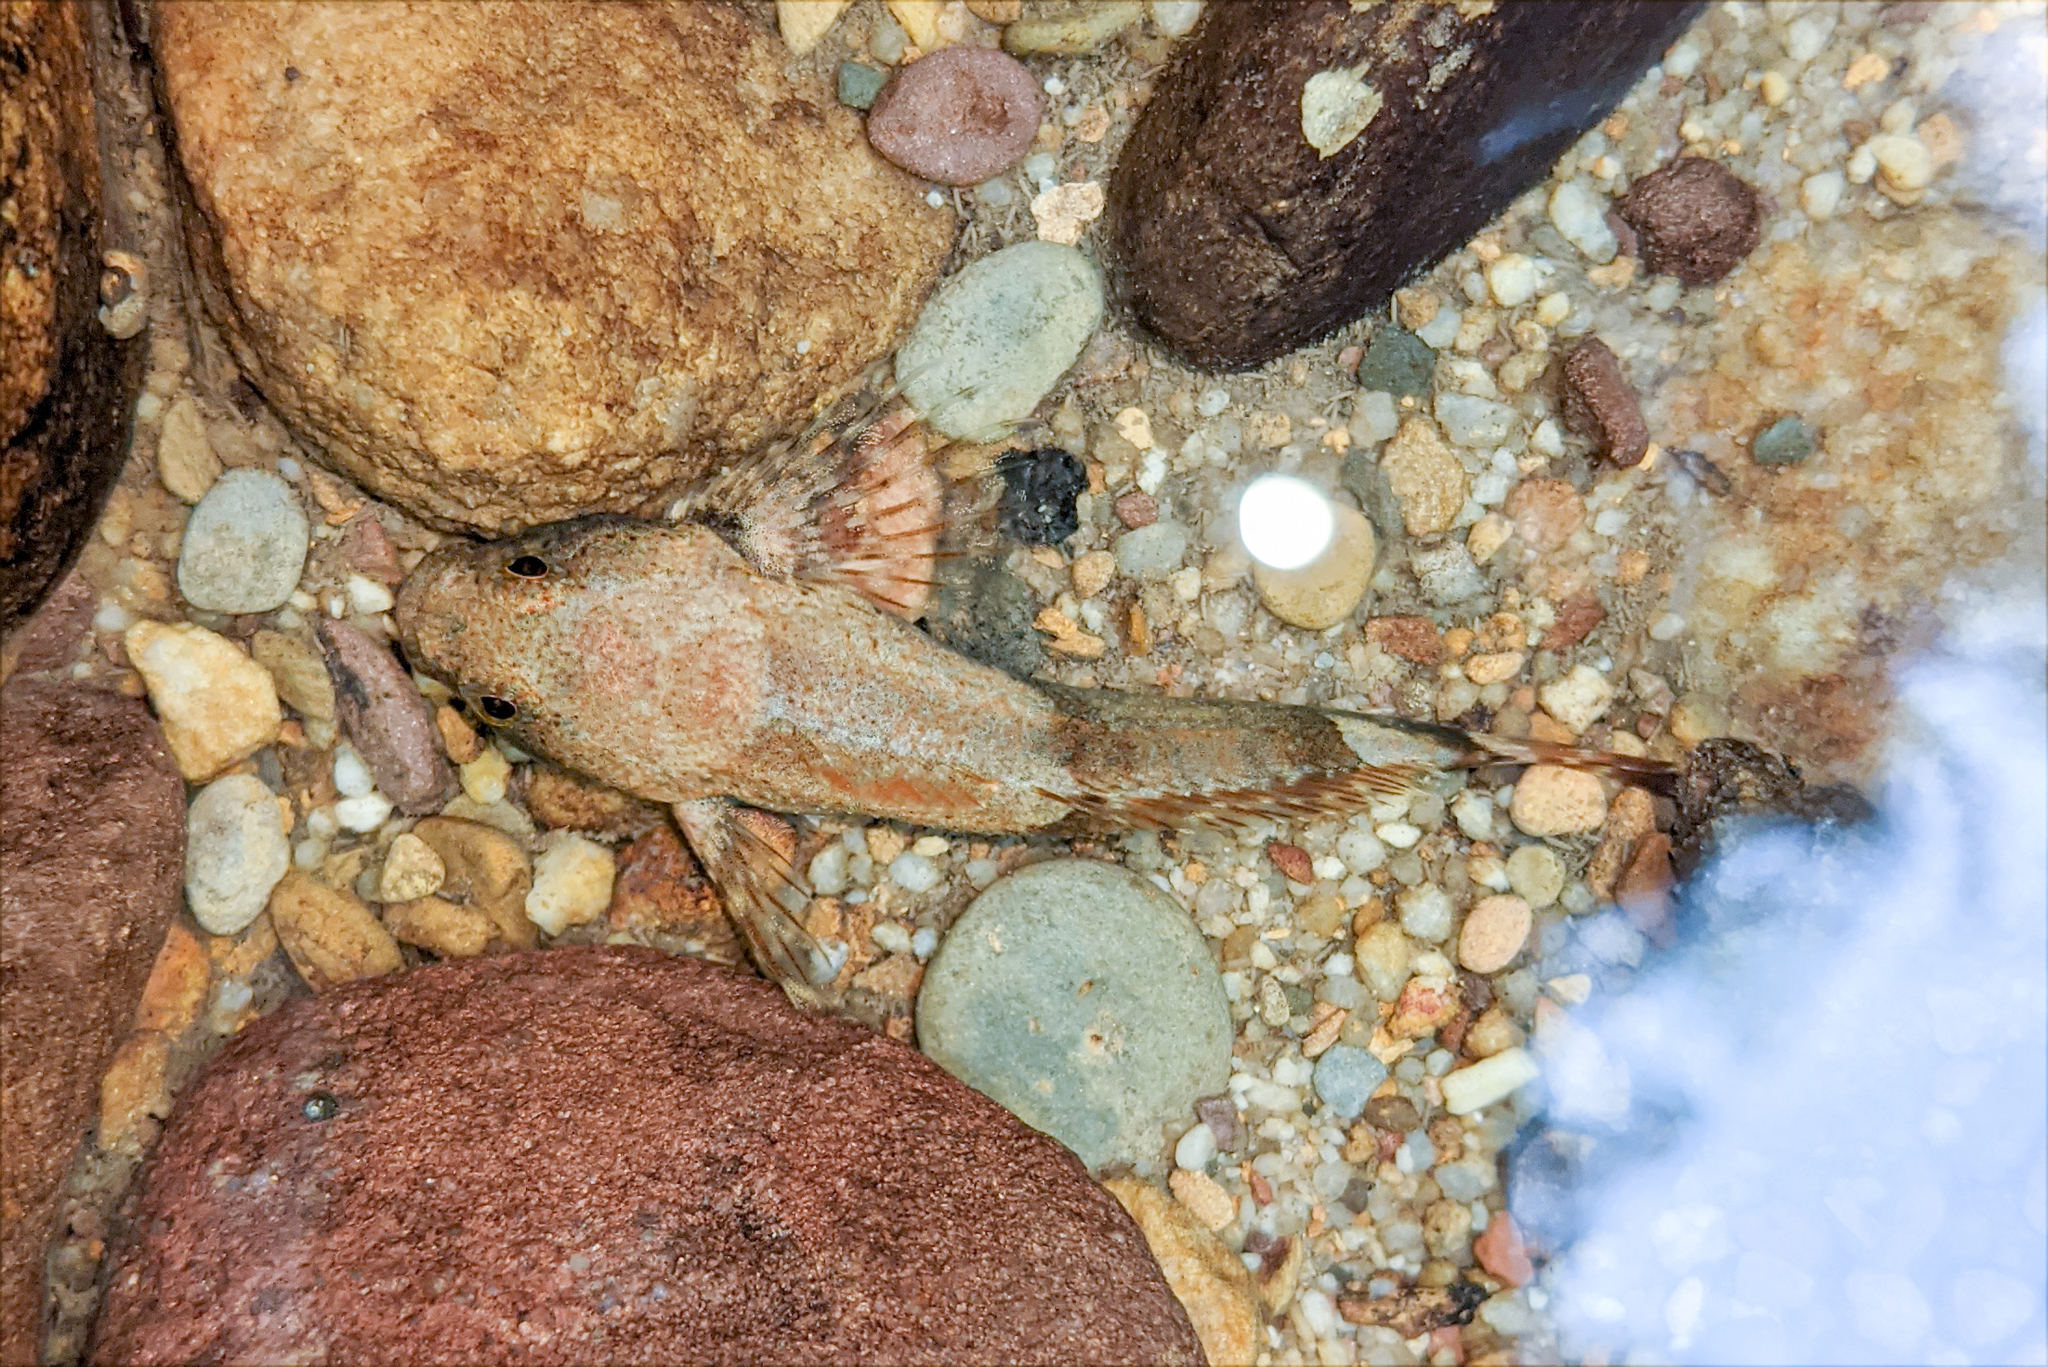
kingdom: Animalia
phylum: Chordata
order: Scorpaeniformes
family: Cottidae
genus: Cottus
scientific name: Cottus bairdii
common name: Mottled sculpin
